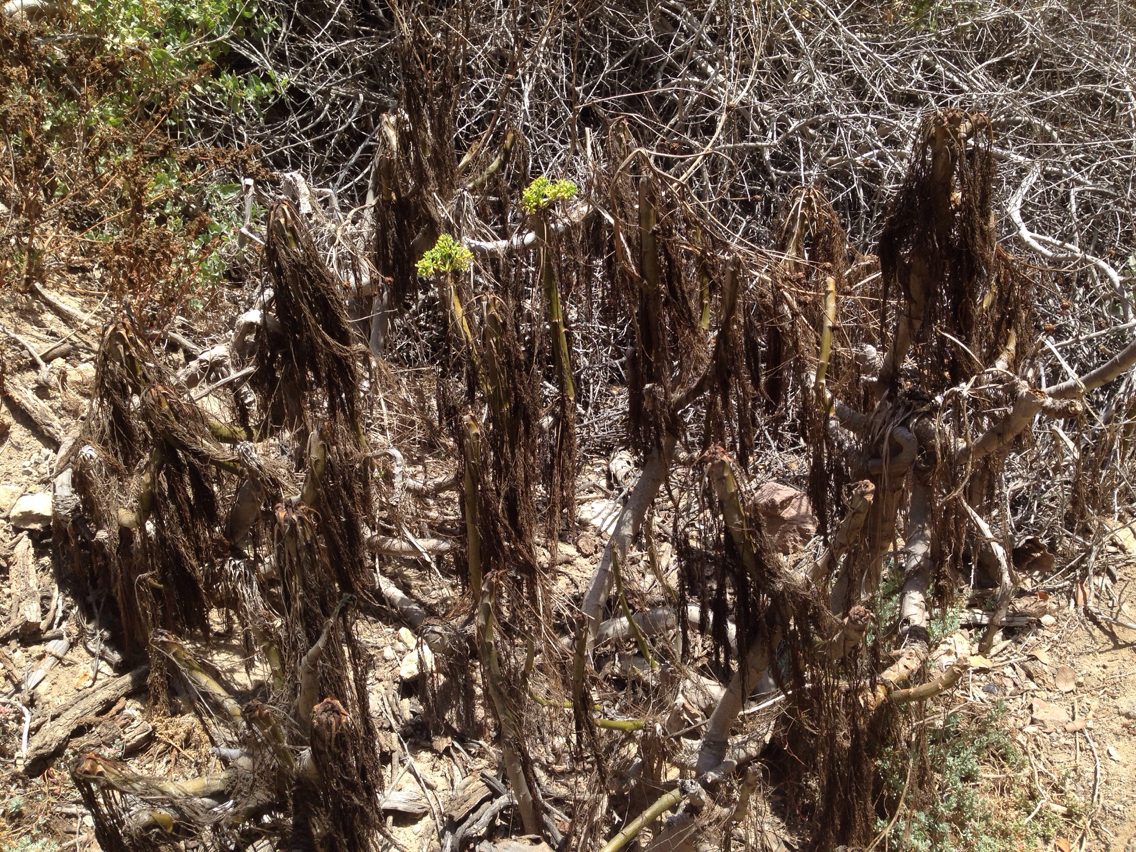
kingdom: Plantae
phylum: Tracheophyta
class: Magnoliopsida
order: Asterales
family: Asteraceae
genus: Coreopsis
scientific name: Coreopsis gigantea
